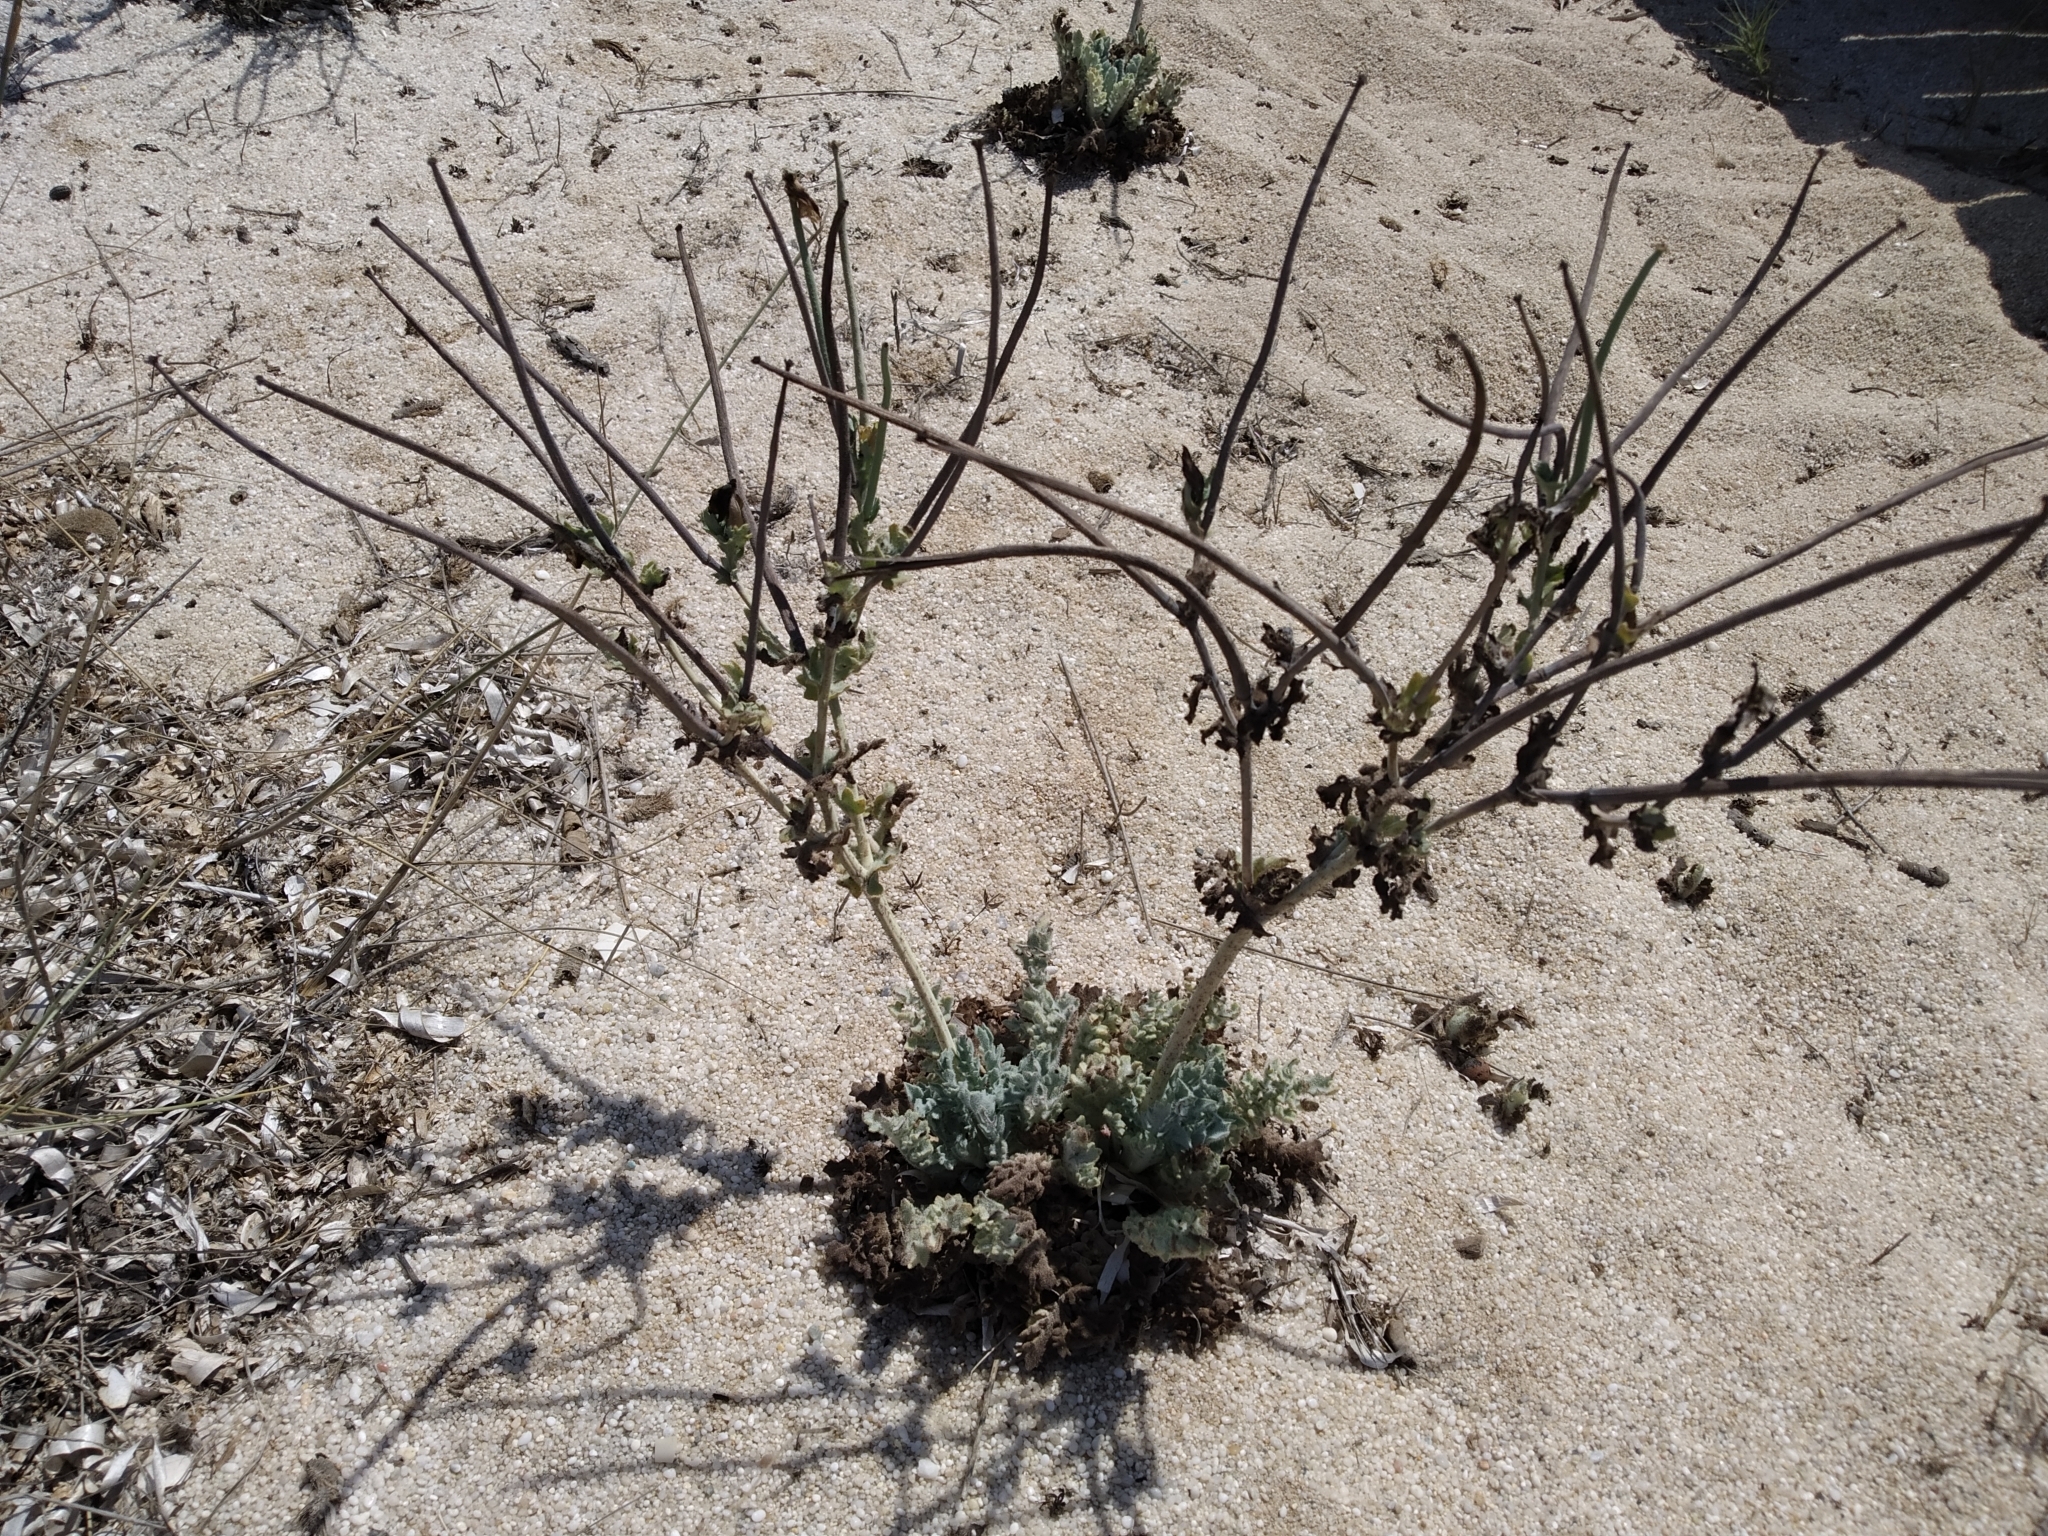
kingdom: Plantae
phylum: Tracheophyta
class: Magnoliopsida
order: Ranunculales
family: Papaveraceae
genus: Glaucium
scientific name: Glaucium flavum
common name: Yellow horned-poppy
